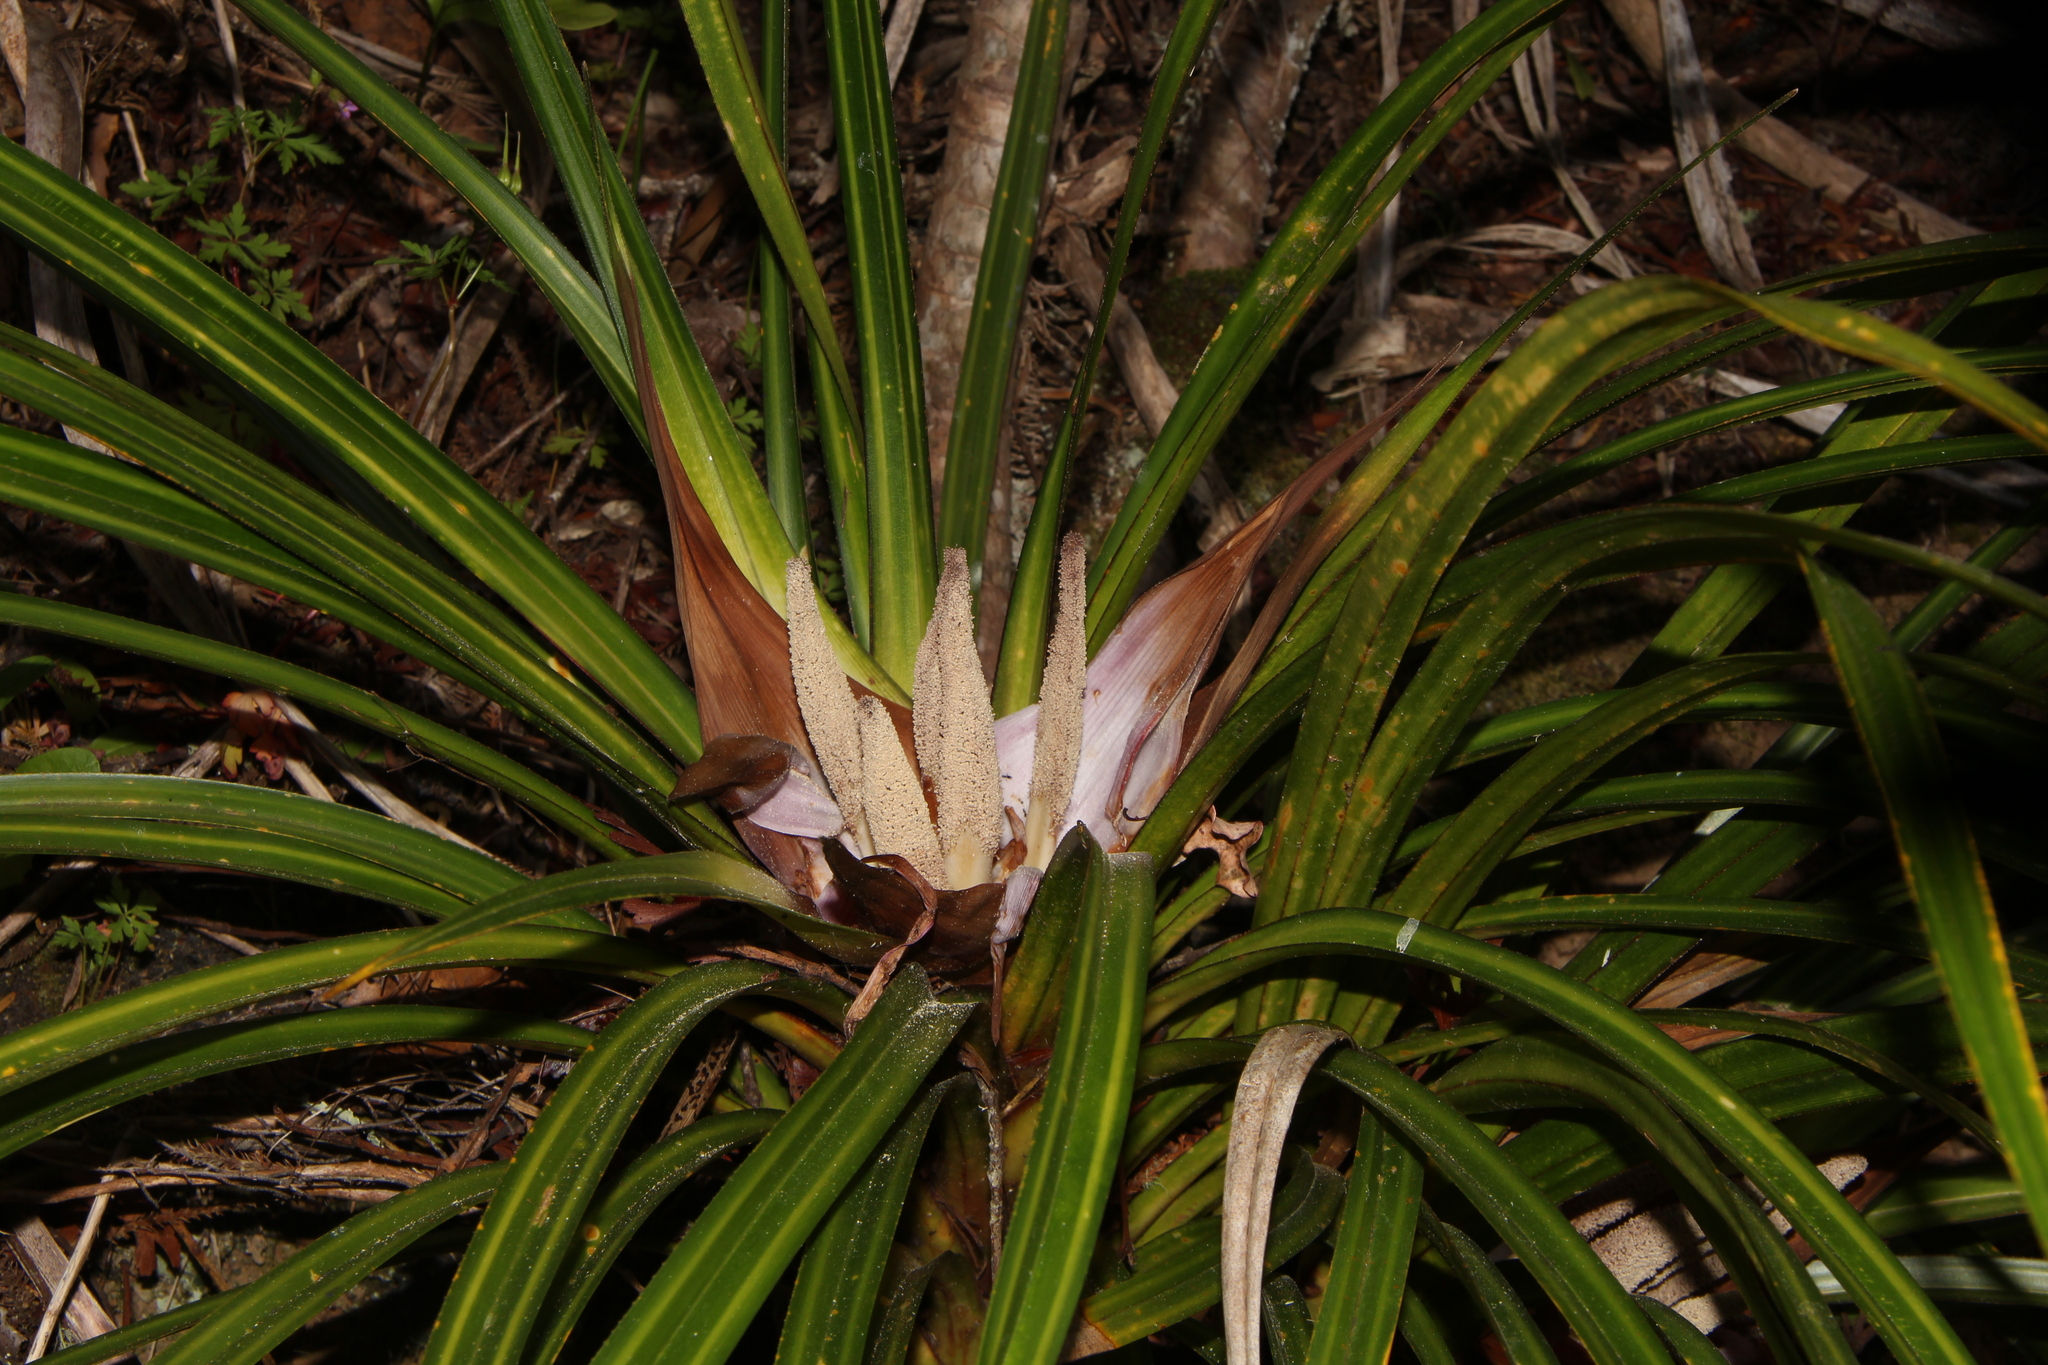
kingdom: Plantae
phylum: Tracheophyta
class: Liliopsida
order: Pandanales
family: Pandanaceae
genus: Freycinetia
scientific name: Freycinetia banksii
